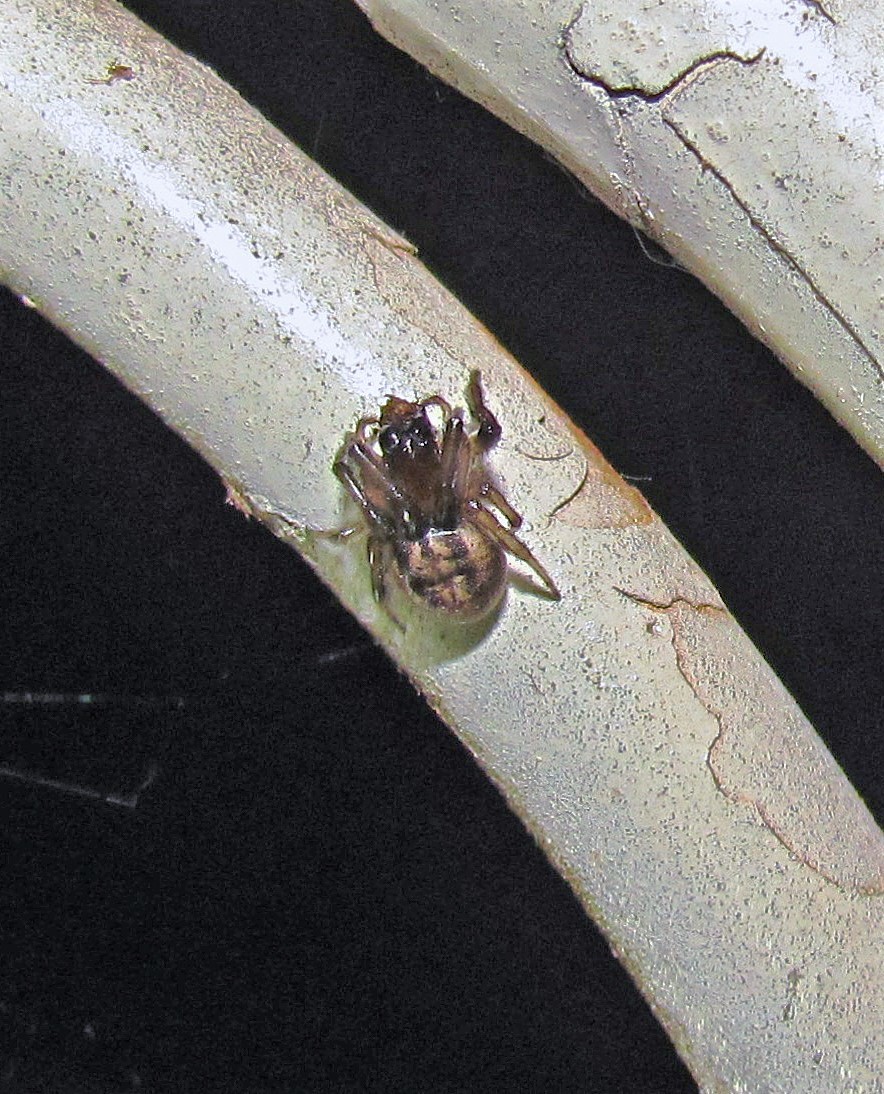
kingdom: Animalia
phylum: Arthropoda
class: Arachnida
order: Araneae
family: Araneidae
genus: Metazygia
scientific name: Metazygia
